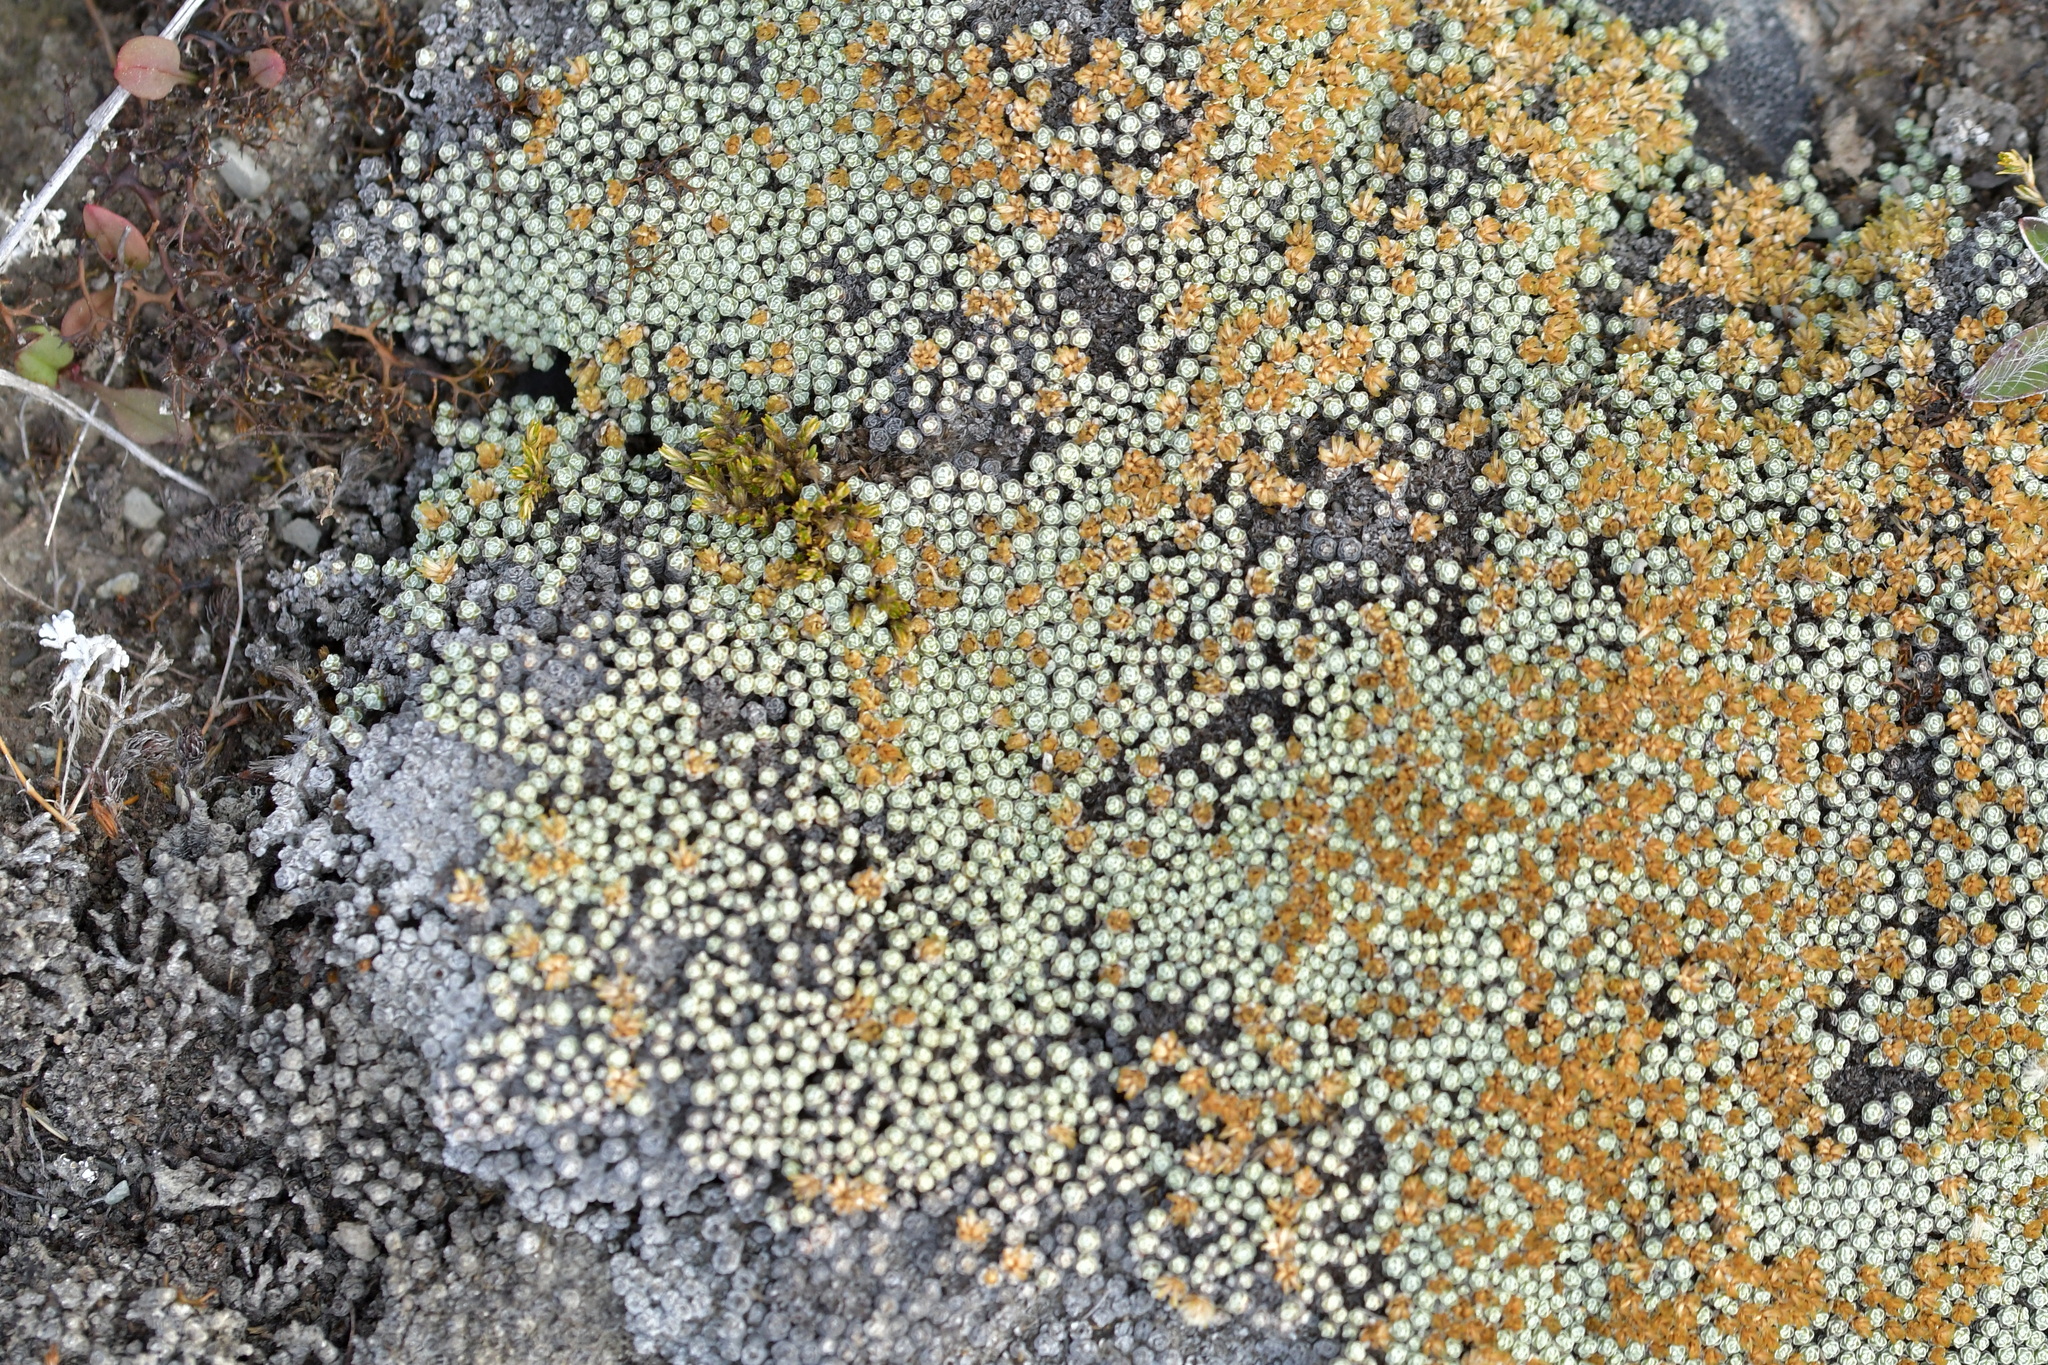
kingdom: Plantae
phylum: Tracheophyta
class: Magnoliopsida
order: Asterales
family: Asteraceae
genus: Raoulia
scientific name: Raoulia australis
